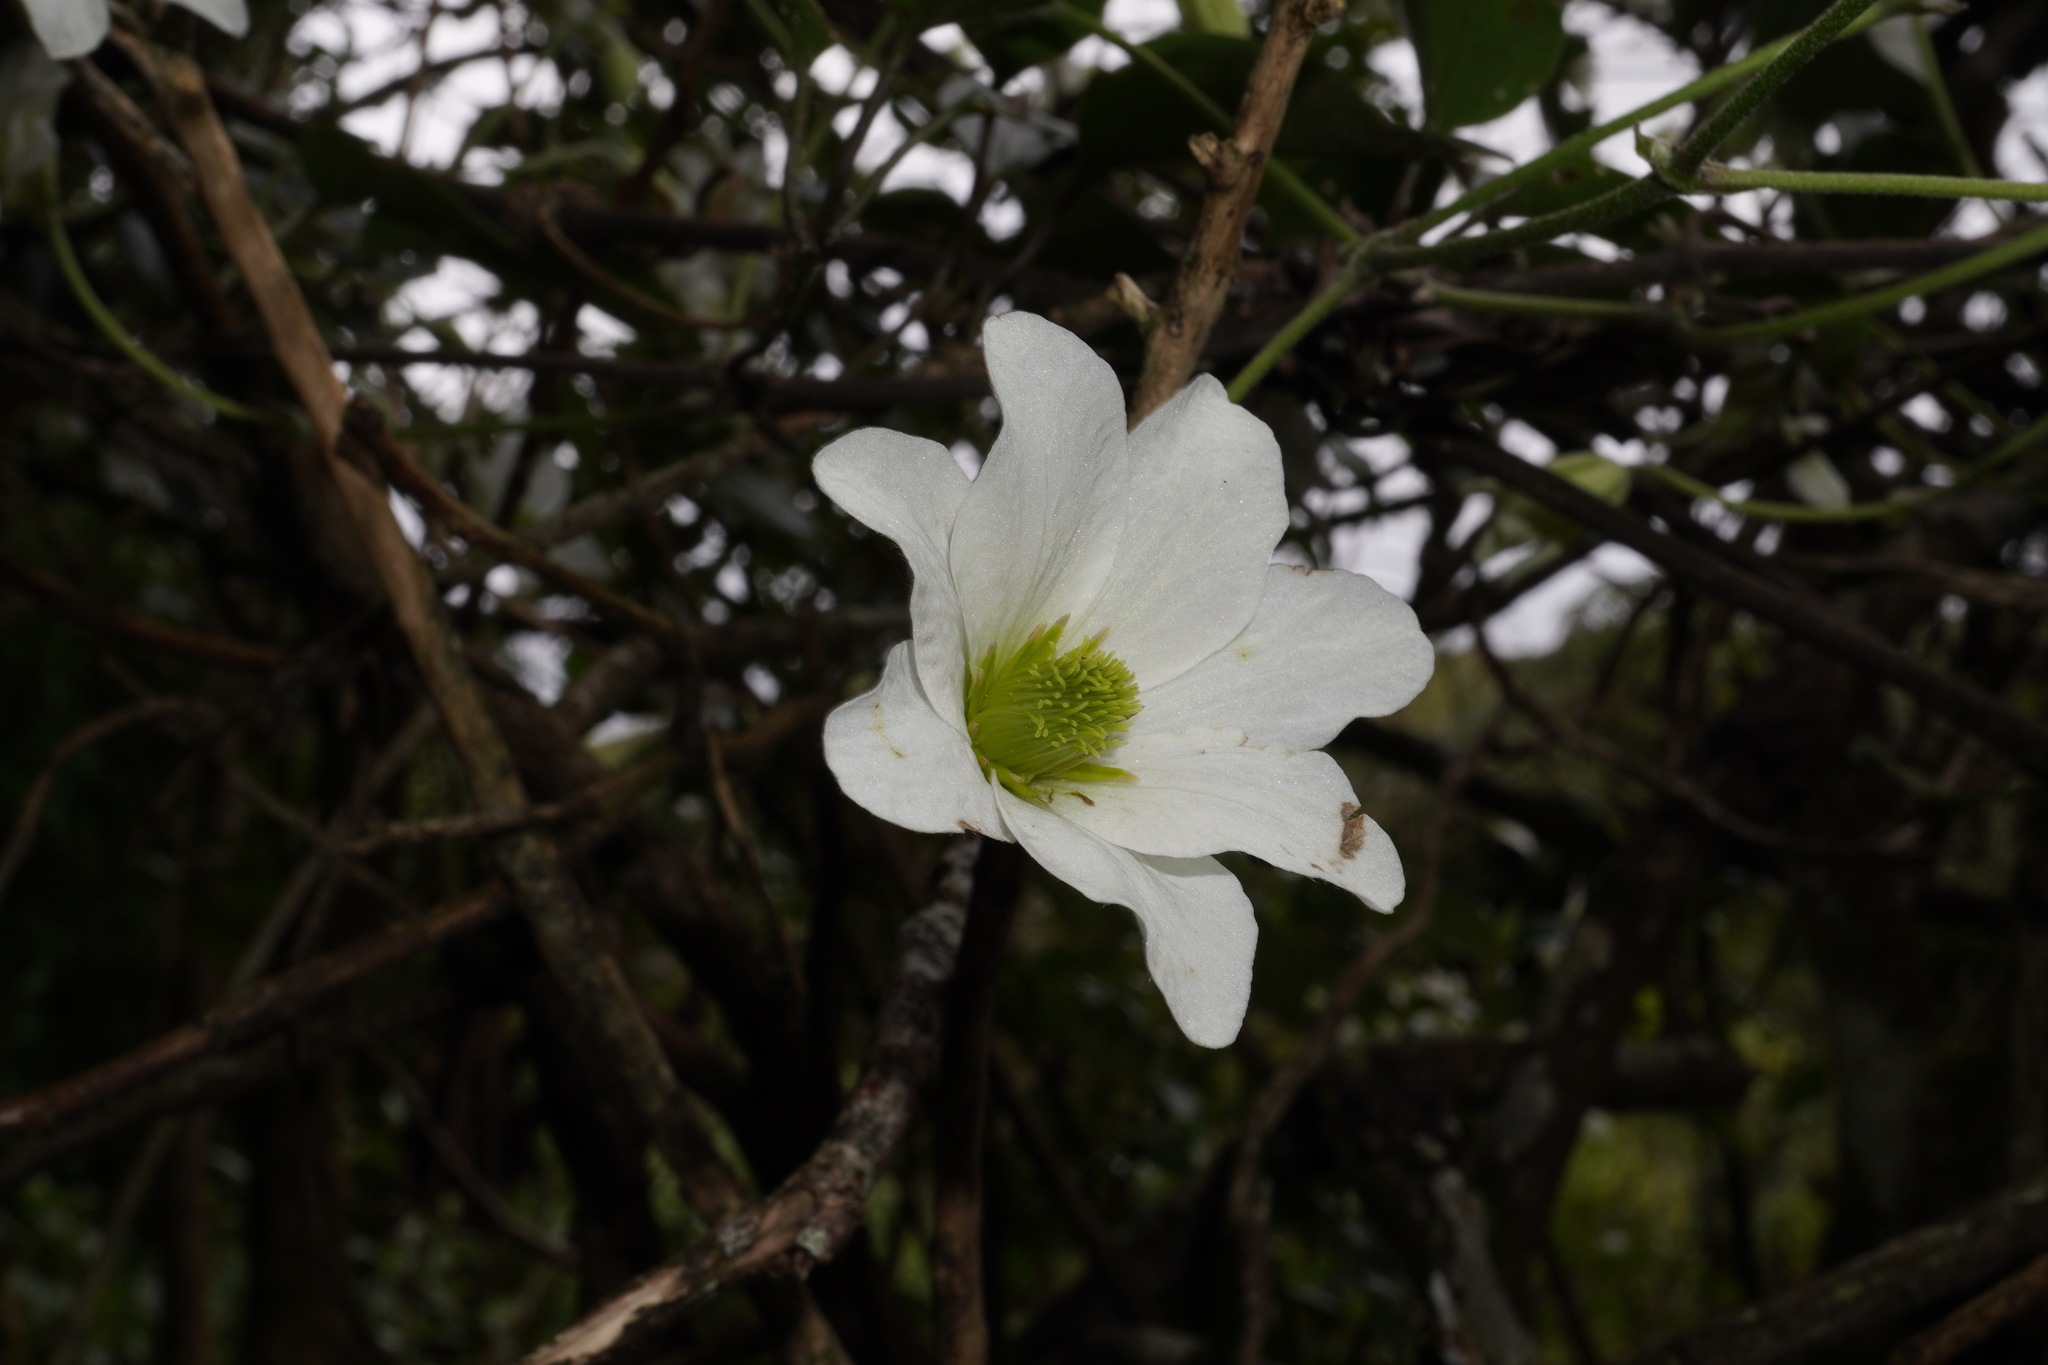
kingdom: Plantae
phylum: Tracheophyta
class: Magnoliopsida
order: Ranunculales
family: Ranunculaceae
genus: Clematis
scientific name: Clematis paniculata
